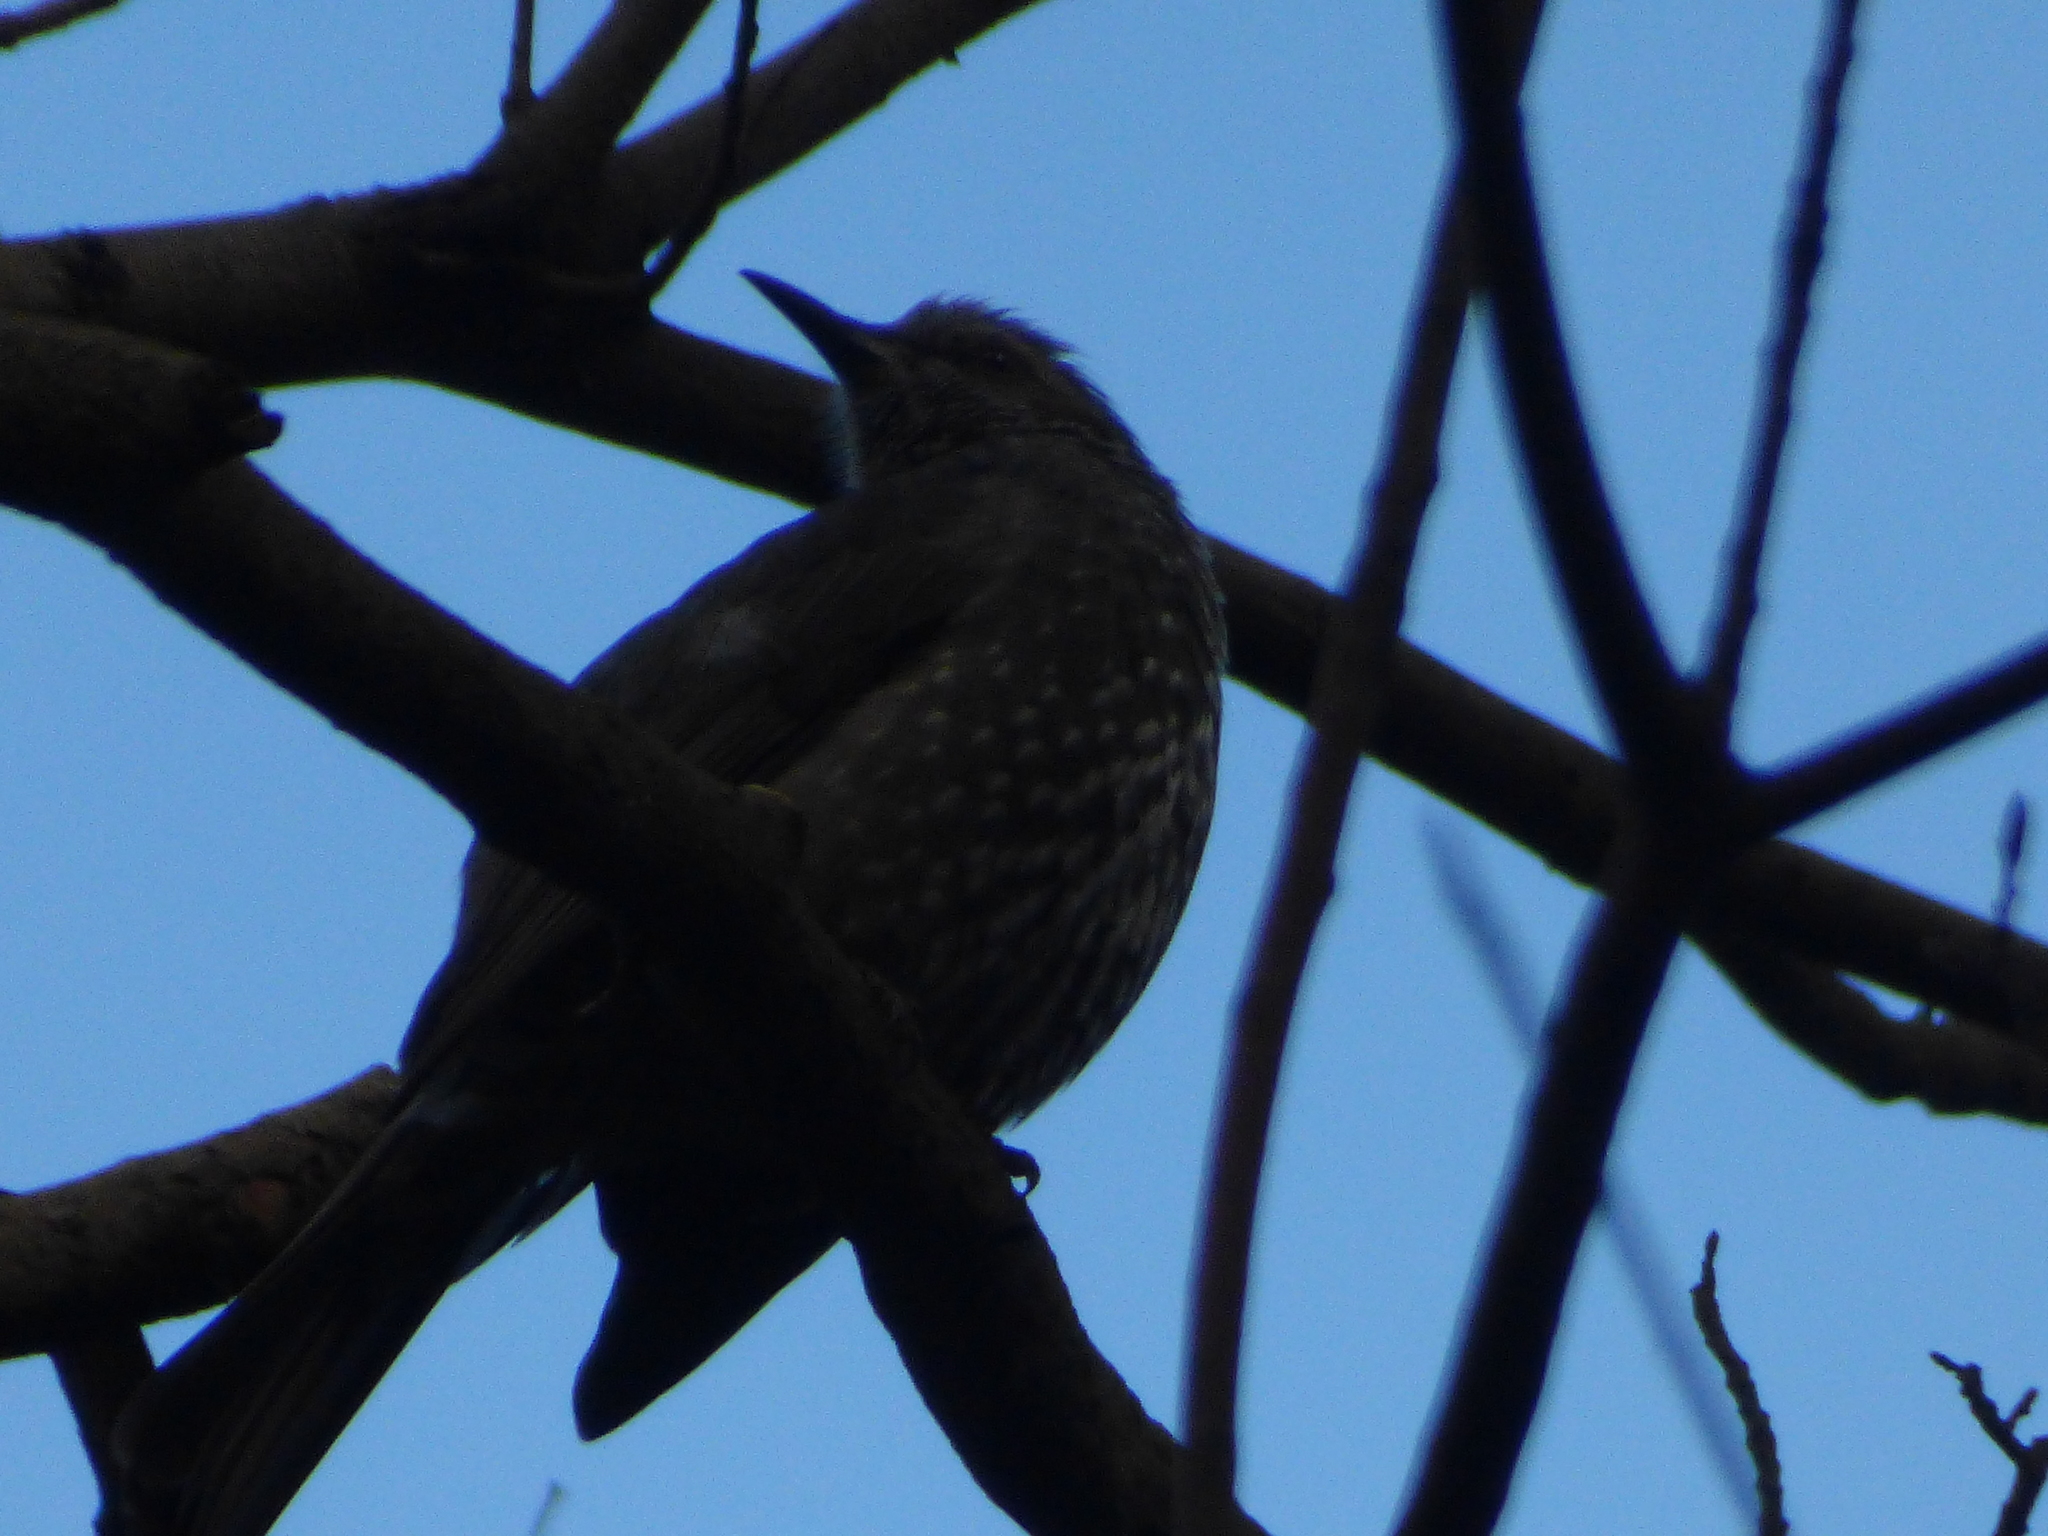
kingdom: Animalia
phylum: Chordata
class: Aves
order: Passeriformes
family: Pycnonotidae
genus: Hypsipetes
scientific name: Hypsipetes amaurotis
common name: Brown-eared bulbul
